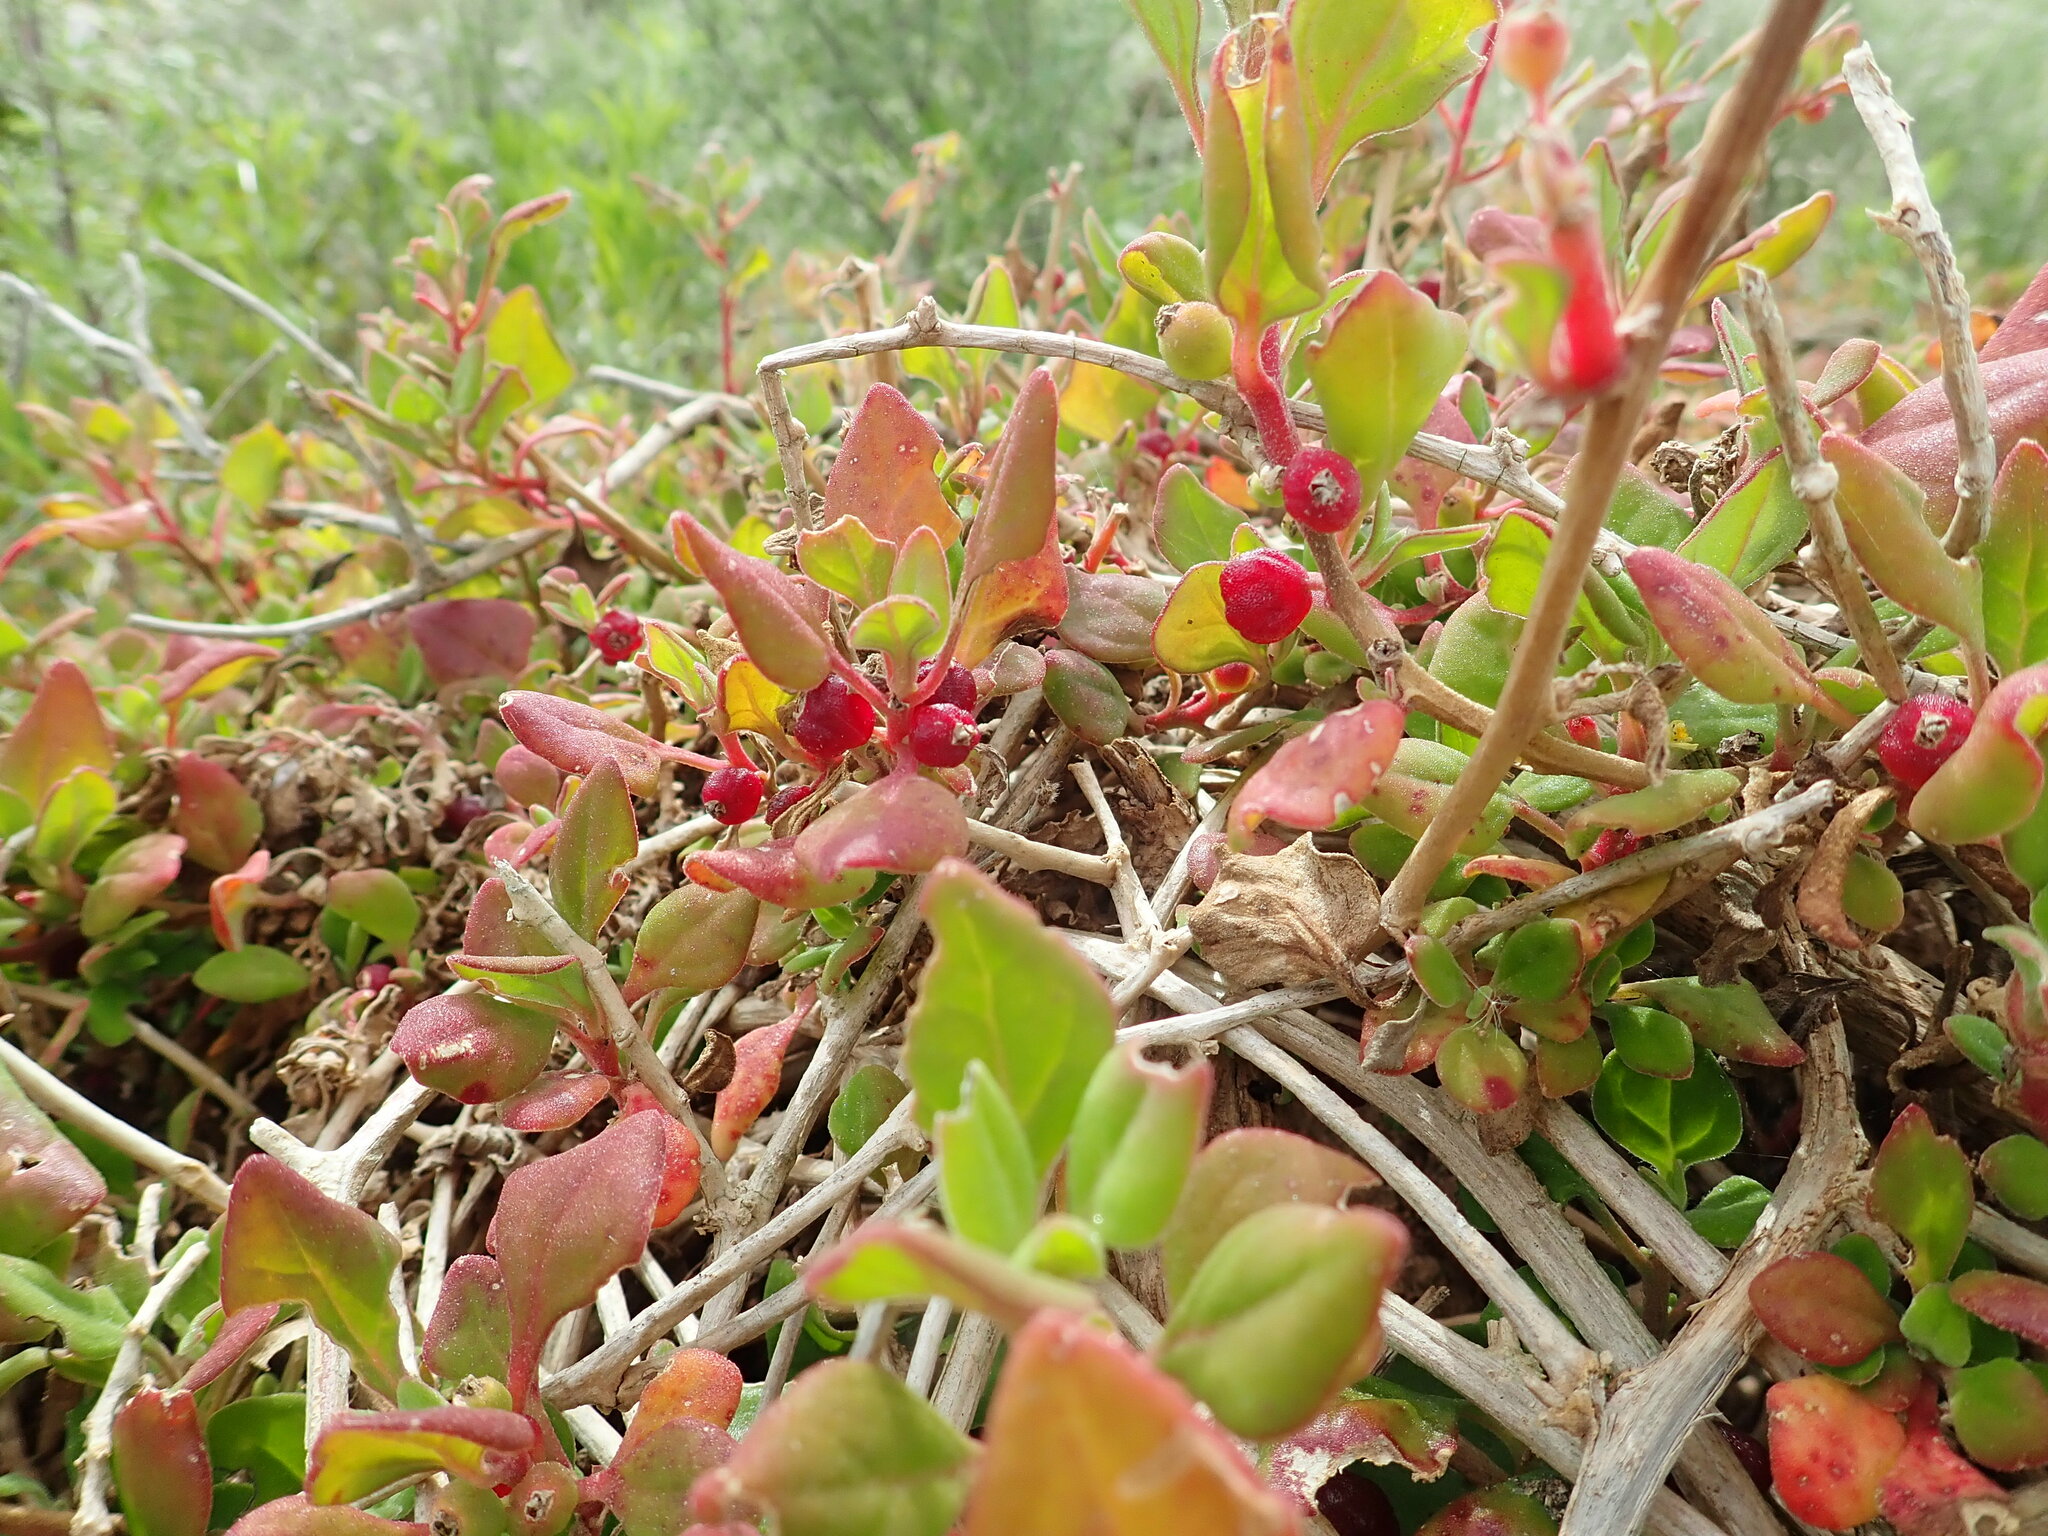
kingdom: Plantae
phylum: Tracheophyta
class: Magnoliopsida
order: Caryophyllales
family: Aizoaceae
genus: Tetragonia
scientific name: Tetragonia implexicoma
